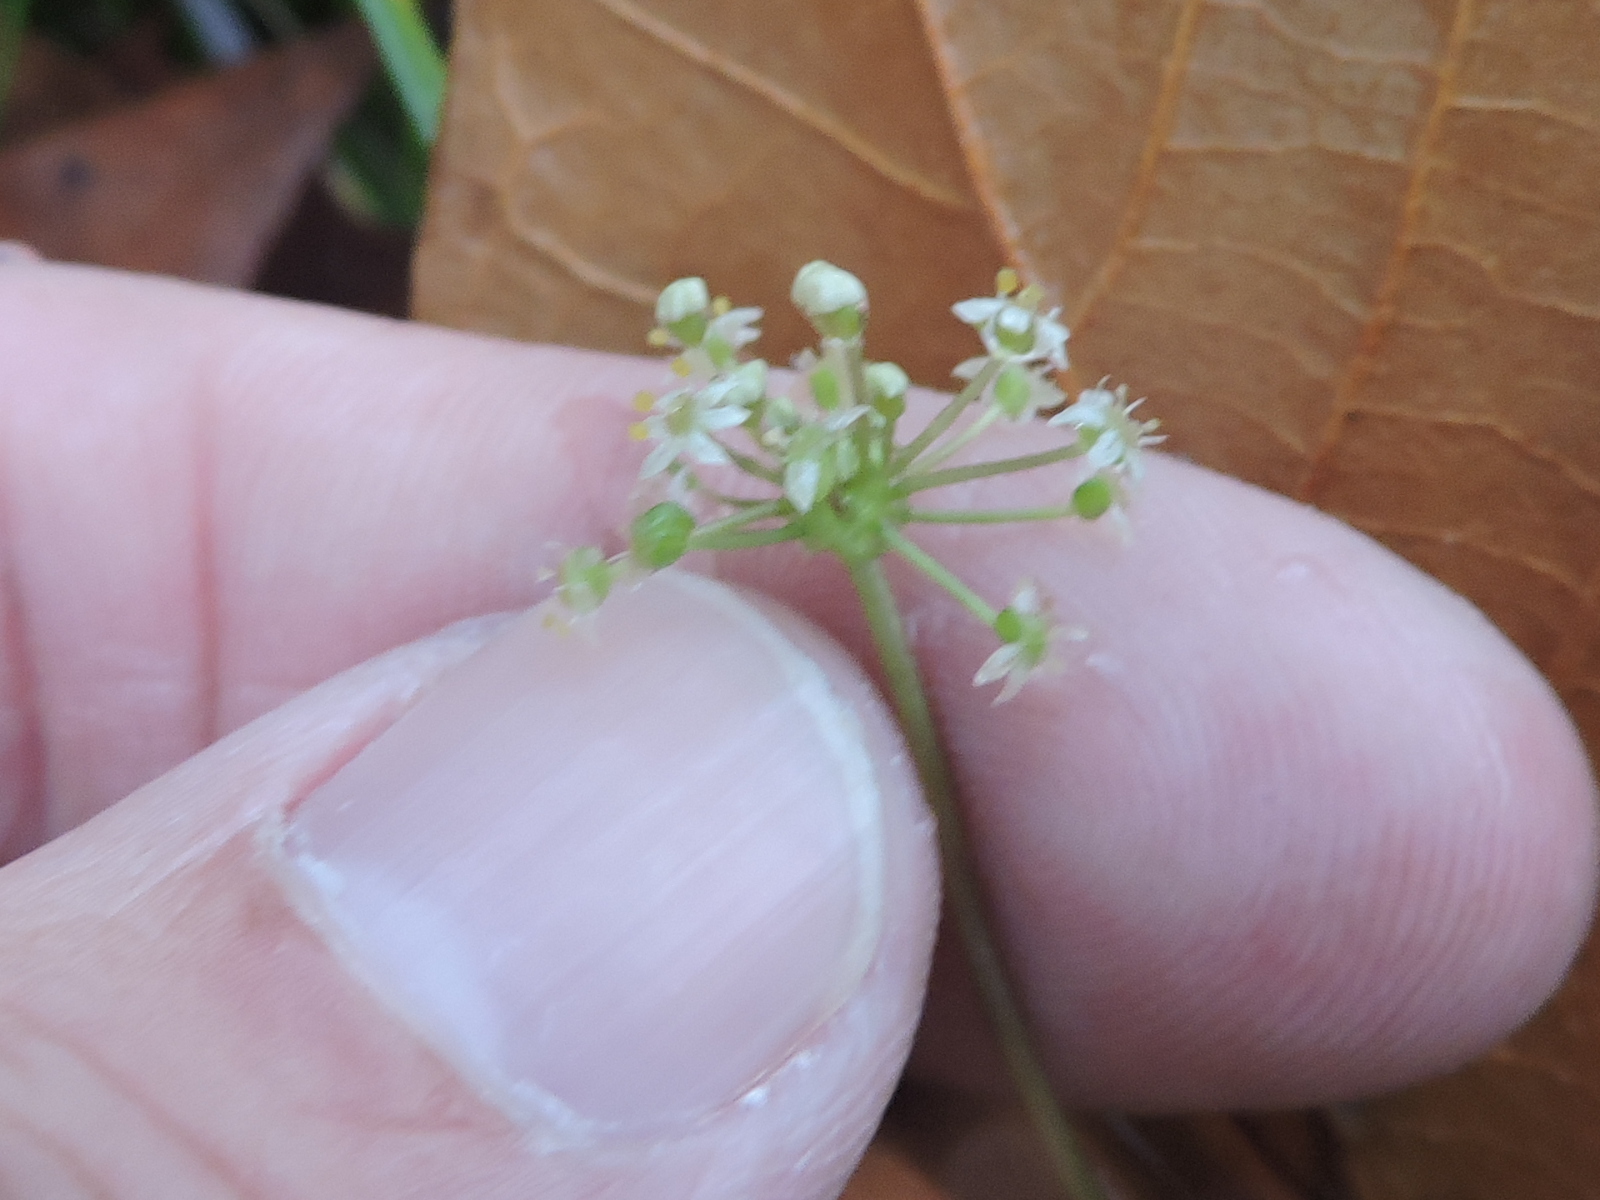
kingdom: Plantae
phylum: Tracheophyta
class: Magnoliopsida
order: Apiales
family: Araliaceae
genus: Hydrocotyle
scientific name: Hydrocotyle umbellata
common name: Water pennywort
